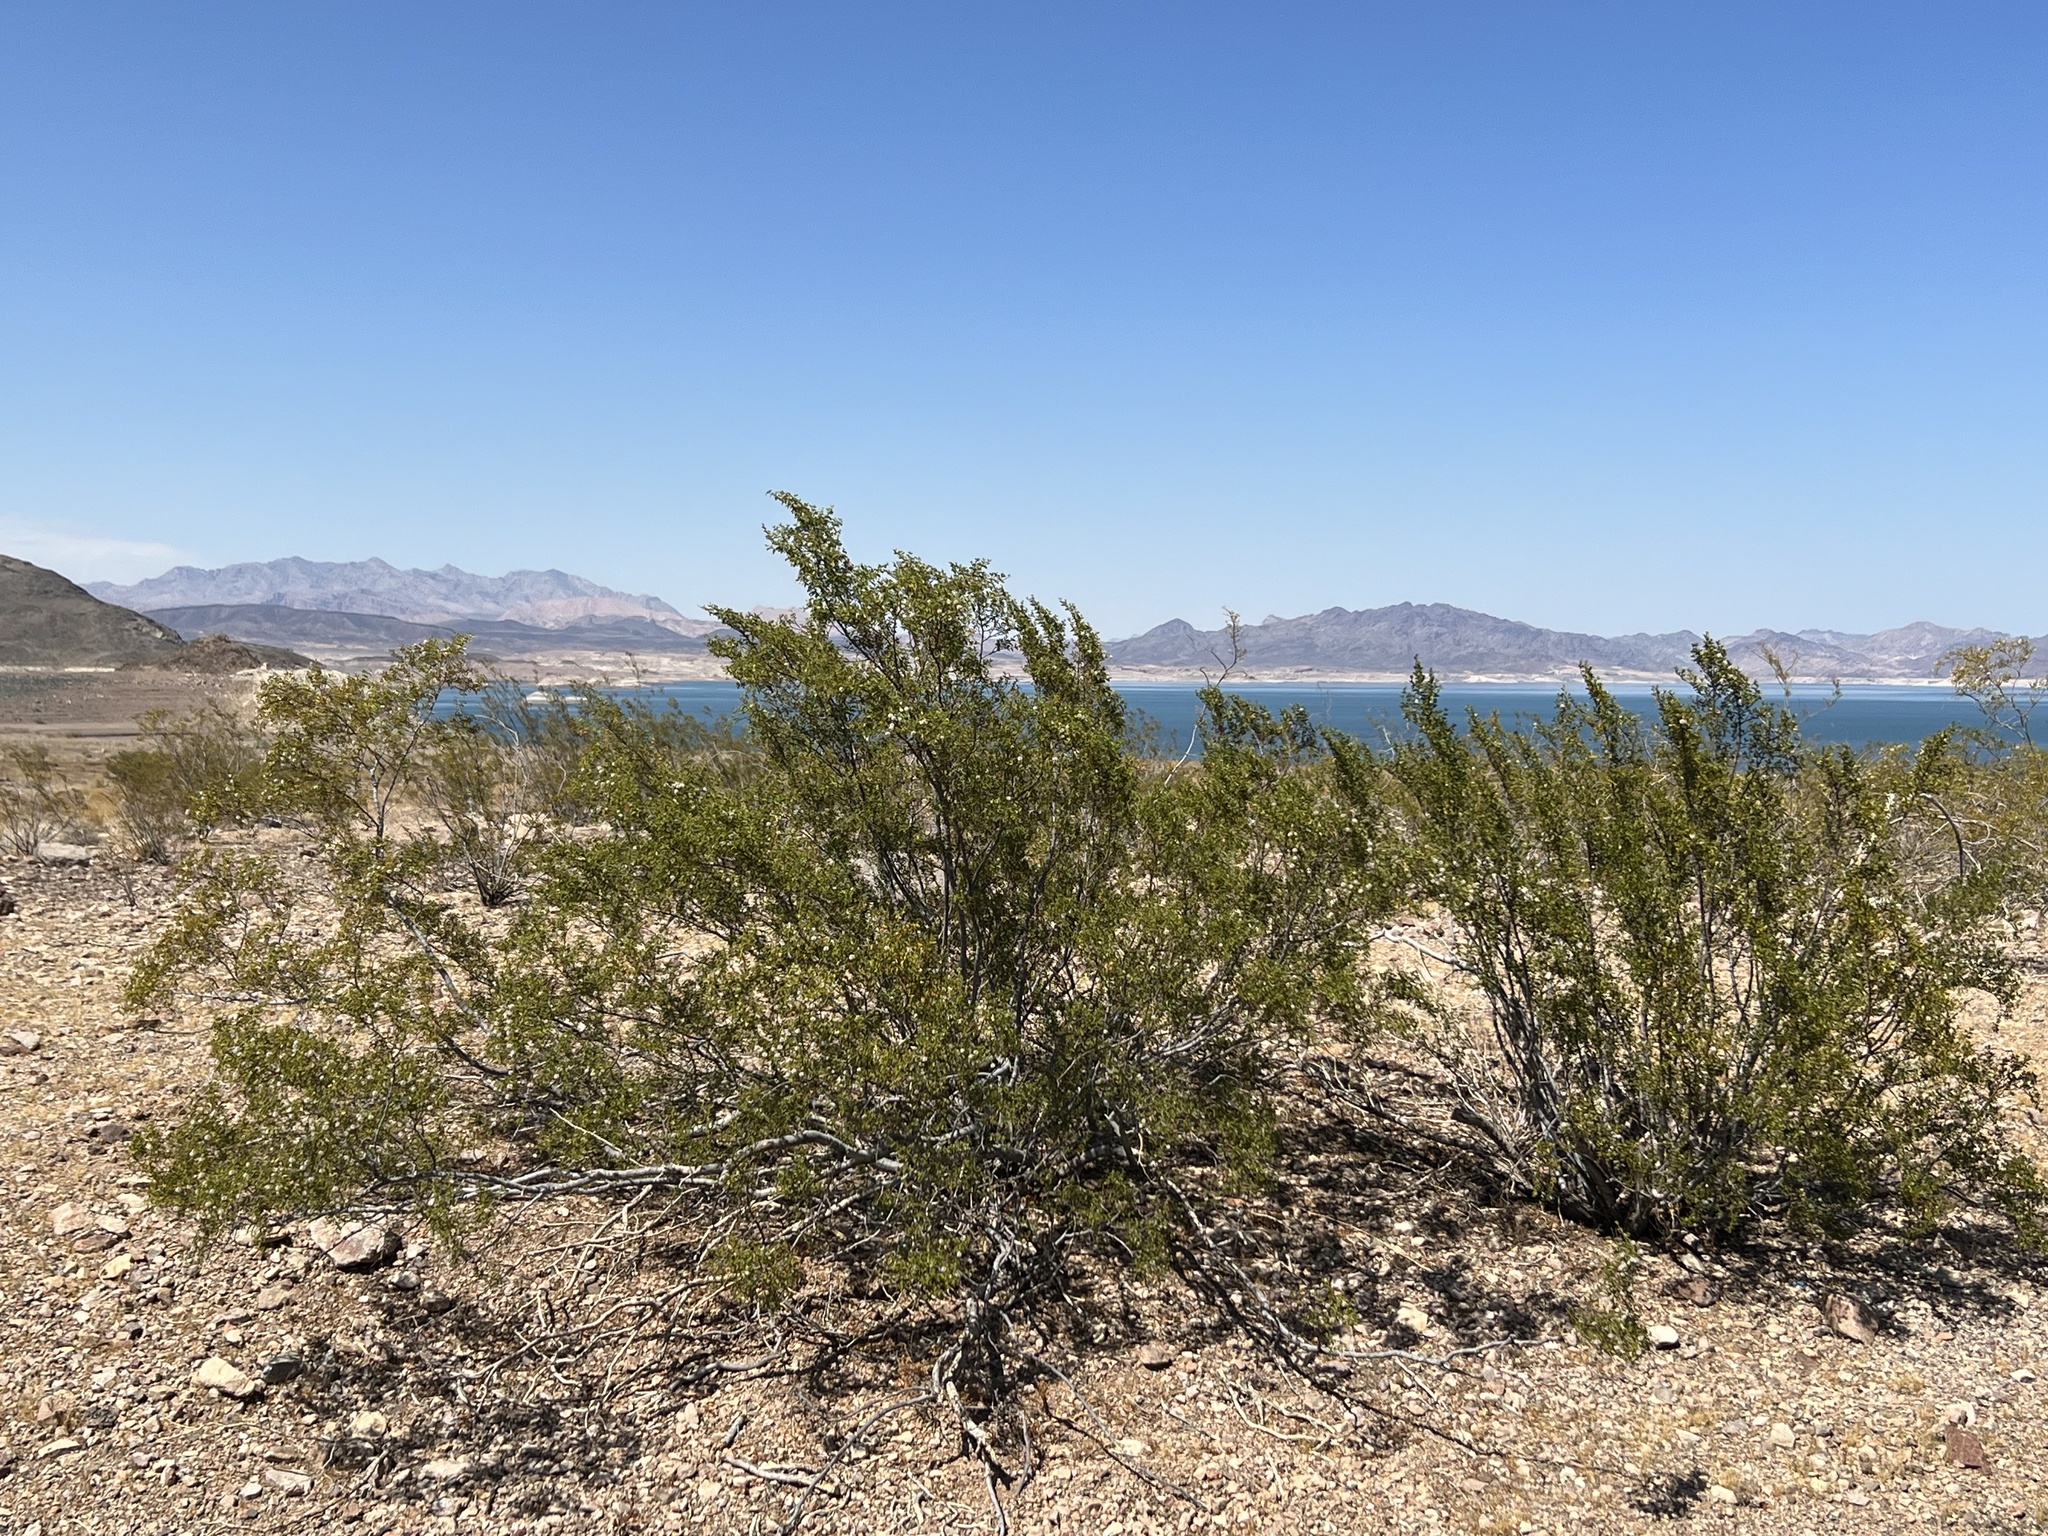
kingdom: Plantae
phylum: Tracheophyta
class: Magnoliopsida
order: Zygophyllales
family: Zygophyllaceae
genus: Larrea
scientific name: Larrea tridentata
